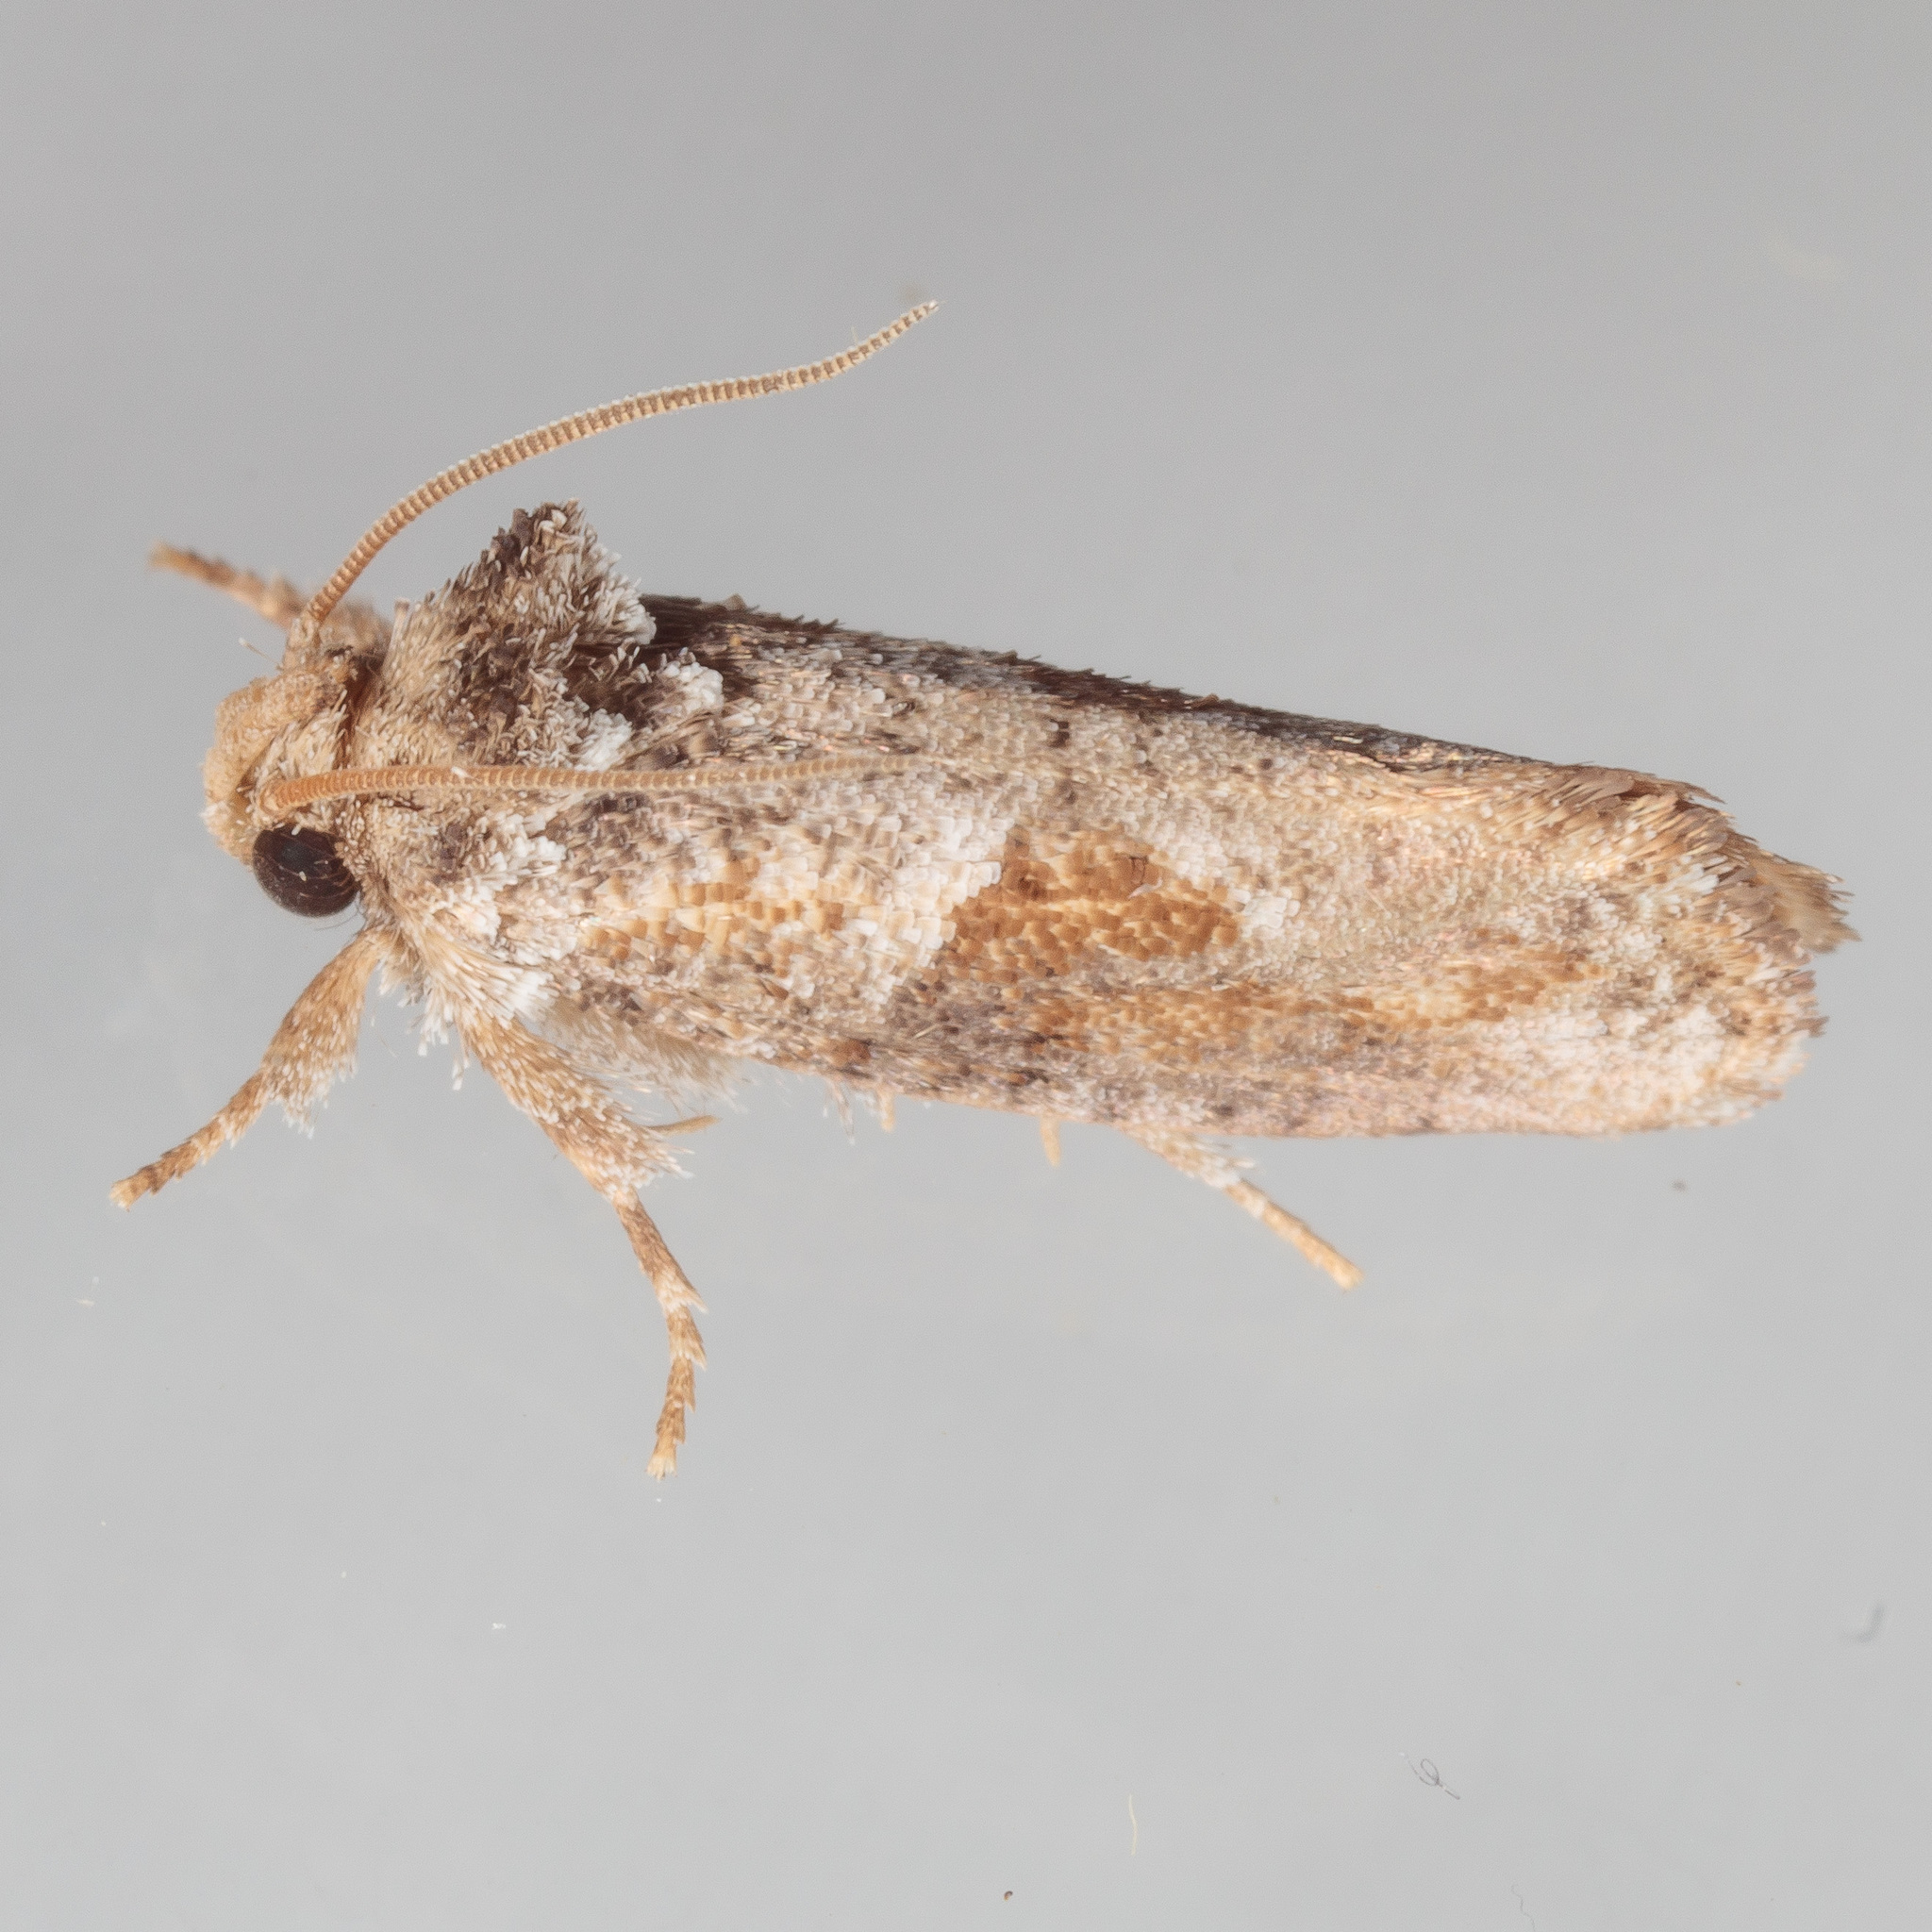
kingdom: Animalia
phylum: Arthropoda
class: Insecta
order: Lepidoptera
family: Tineidae
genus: Acrolophus
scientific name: Acrolophus piger
